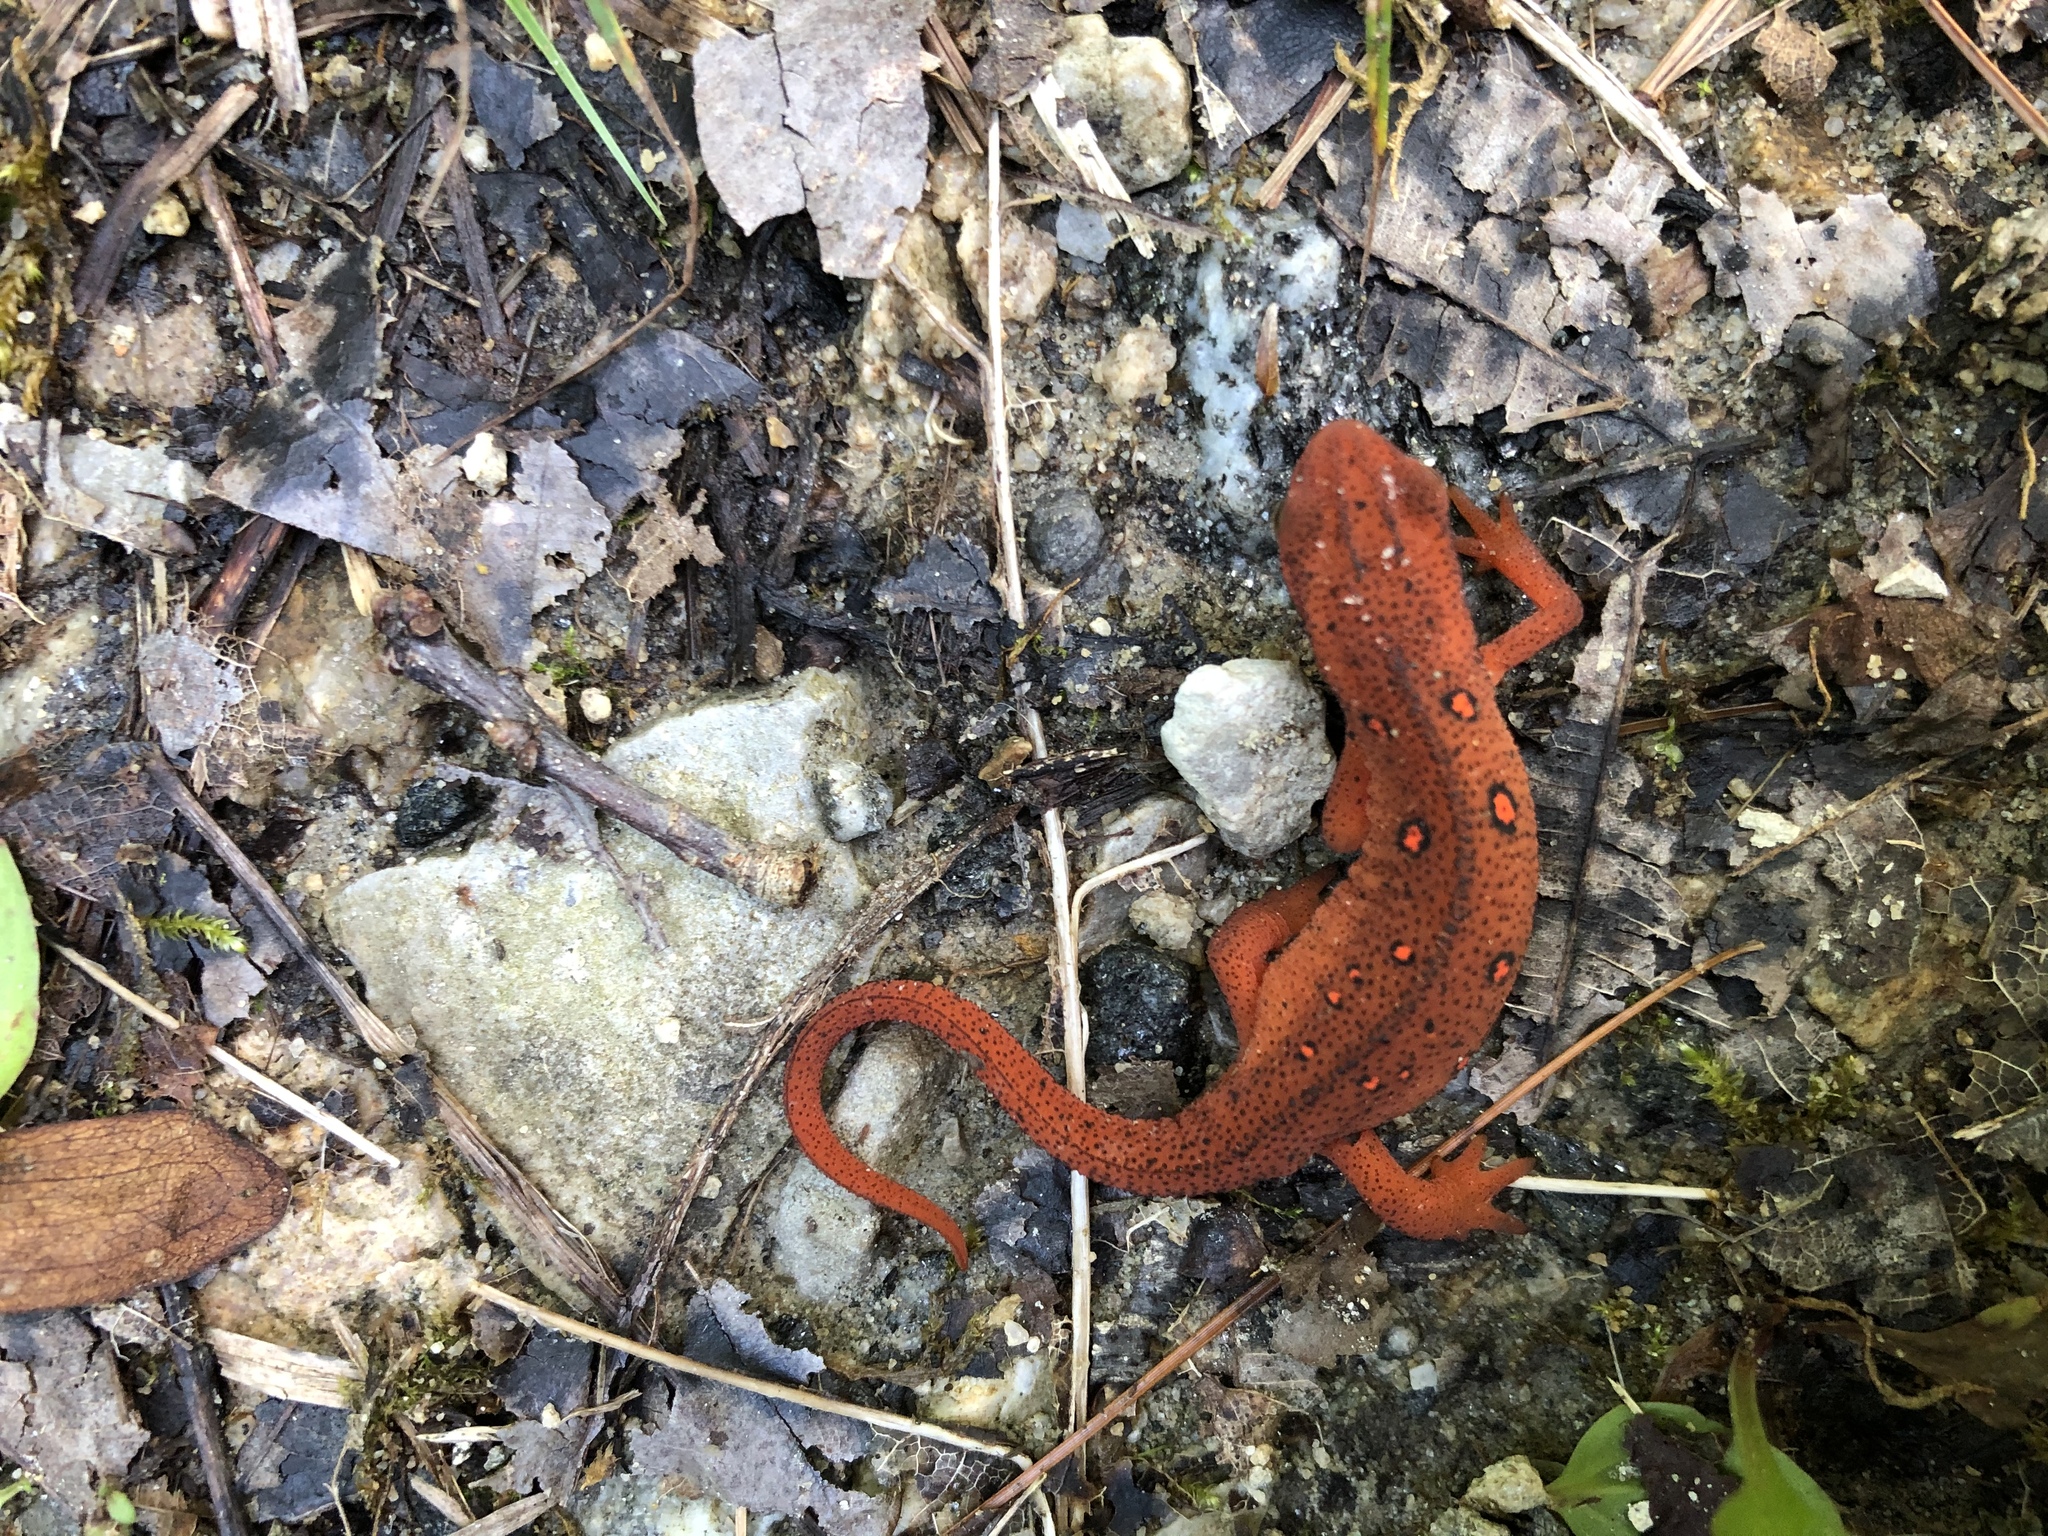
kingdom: Animalia
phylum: Chordata
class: Amphibia
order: Caudata
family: Salamandridae
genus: Notophthalmus
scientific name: Notophthalmus viridescens
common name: Eastern newt
